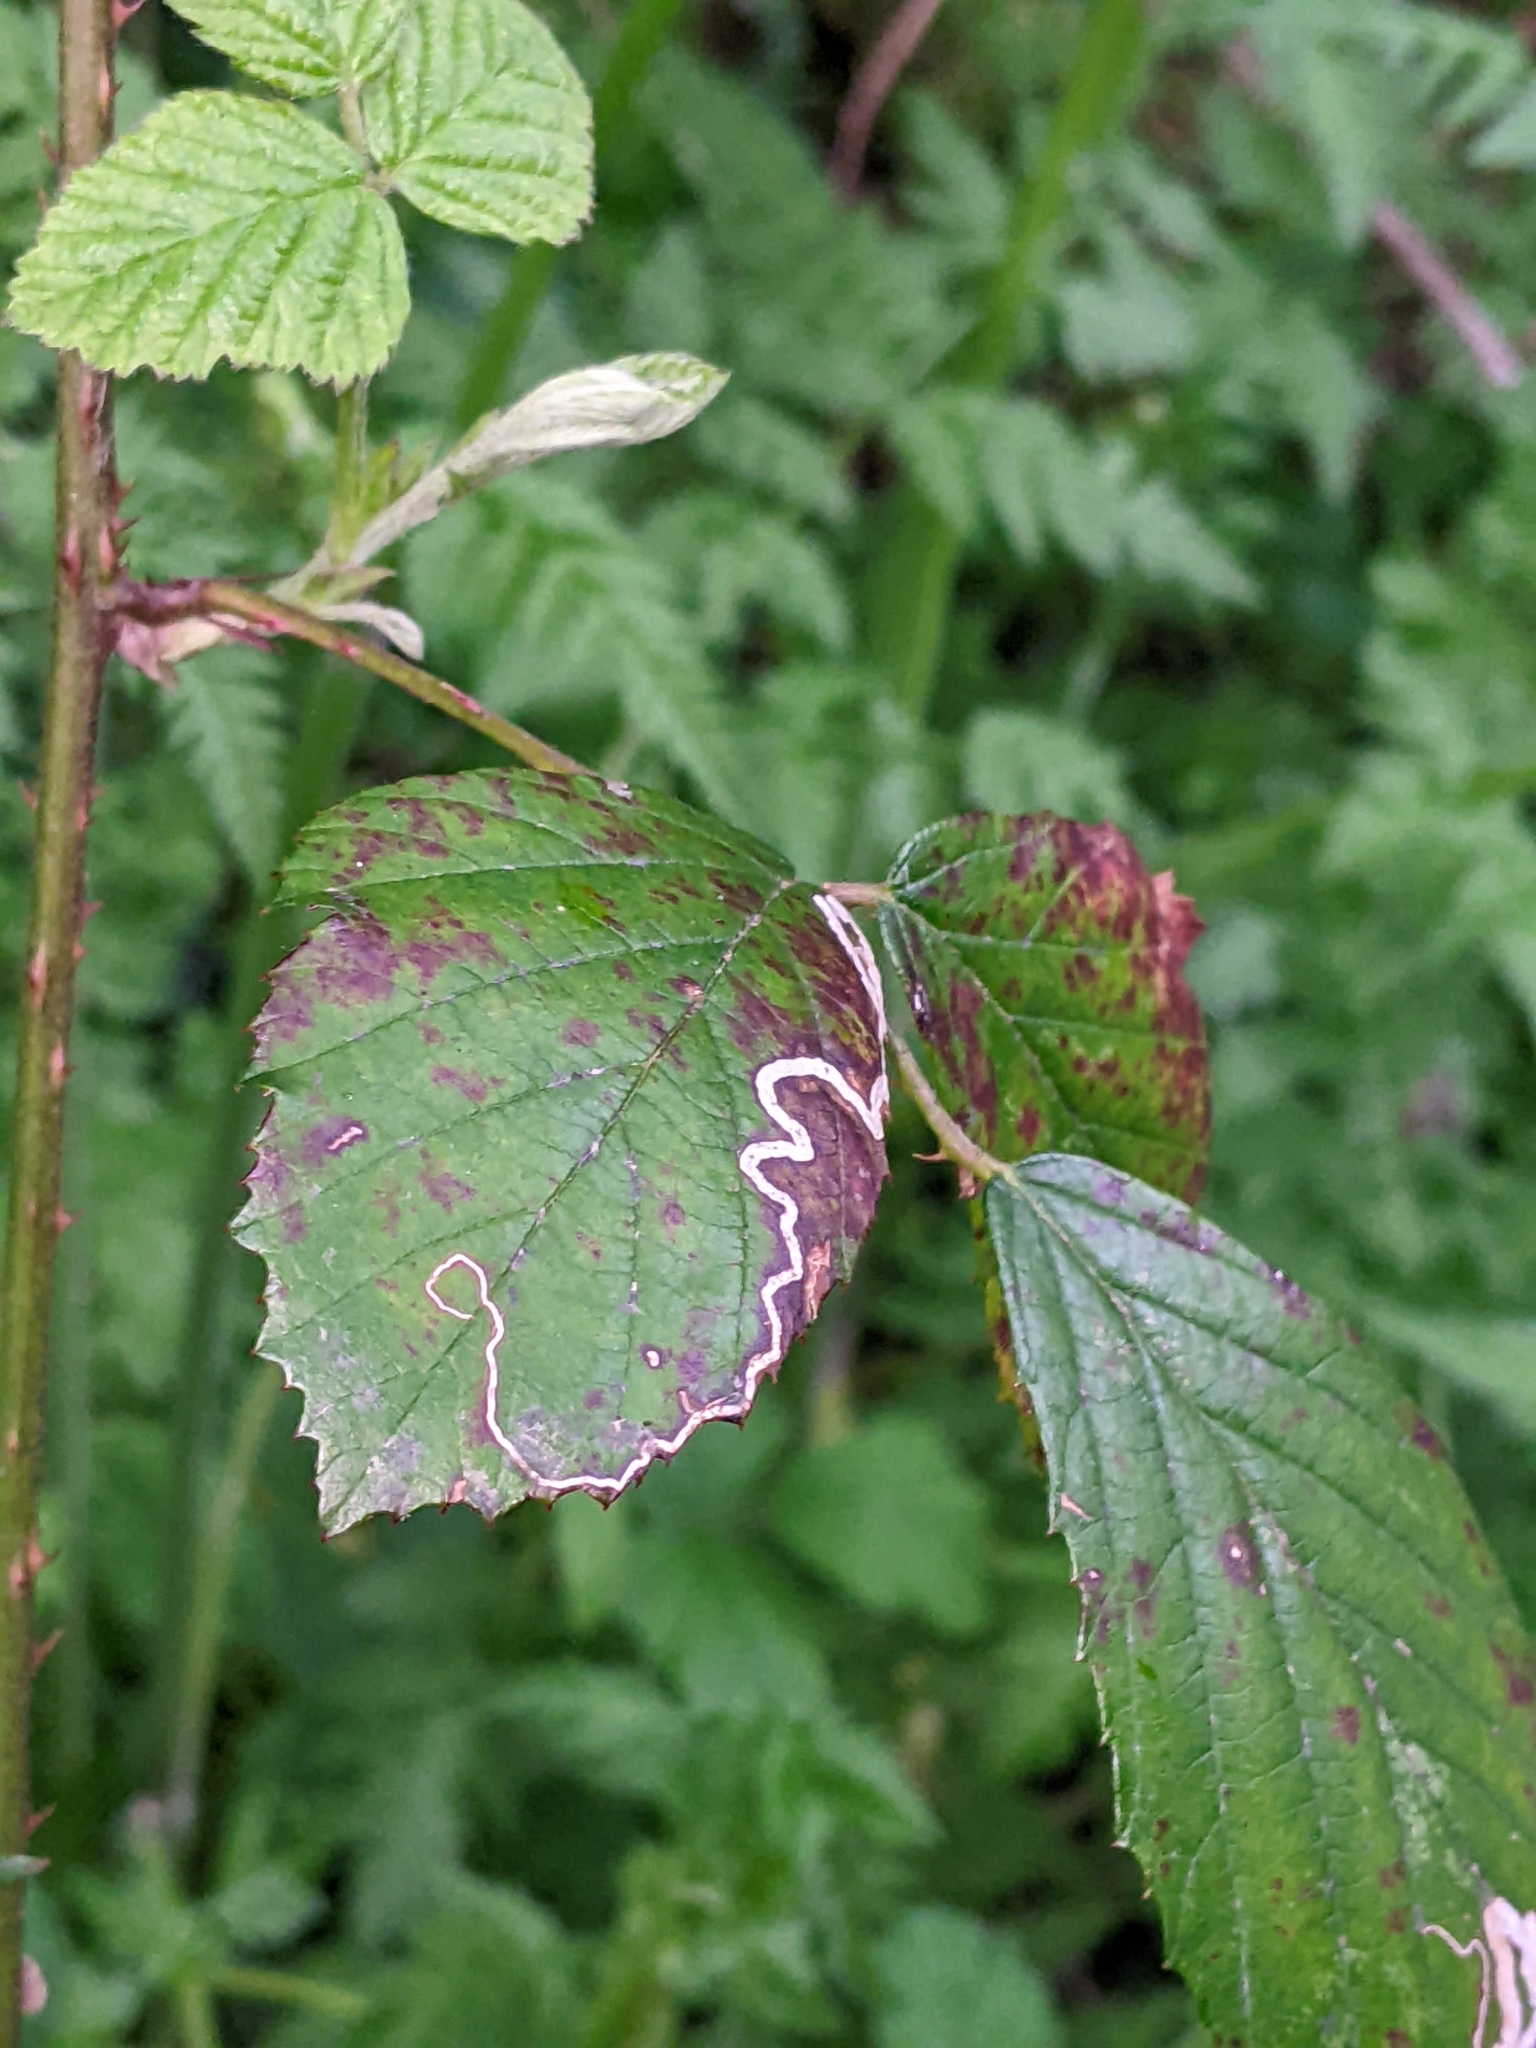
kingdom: Animalia
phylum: Arthropoda
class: Insecta
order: Lepidoptera
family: Nepticulidae
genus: Stigmella
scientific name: Stigmella aurella
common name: Golden pigmy
